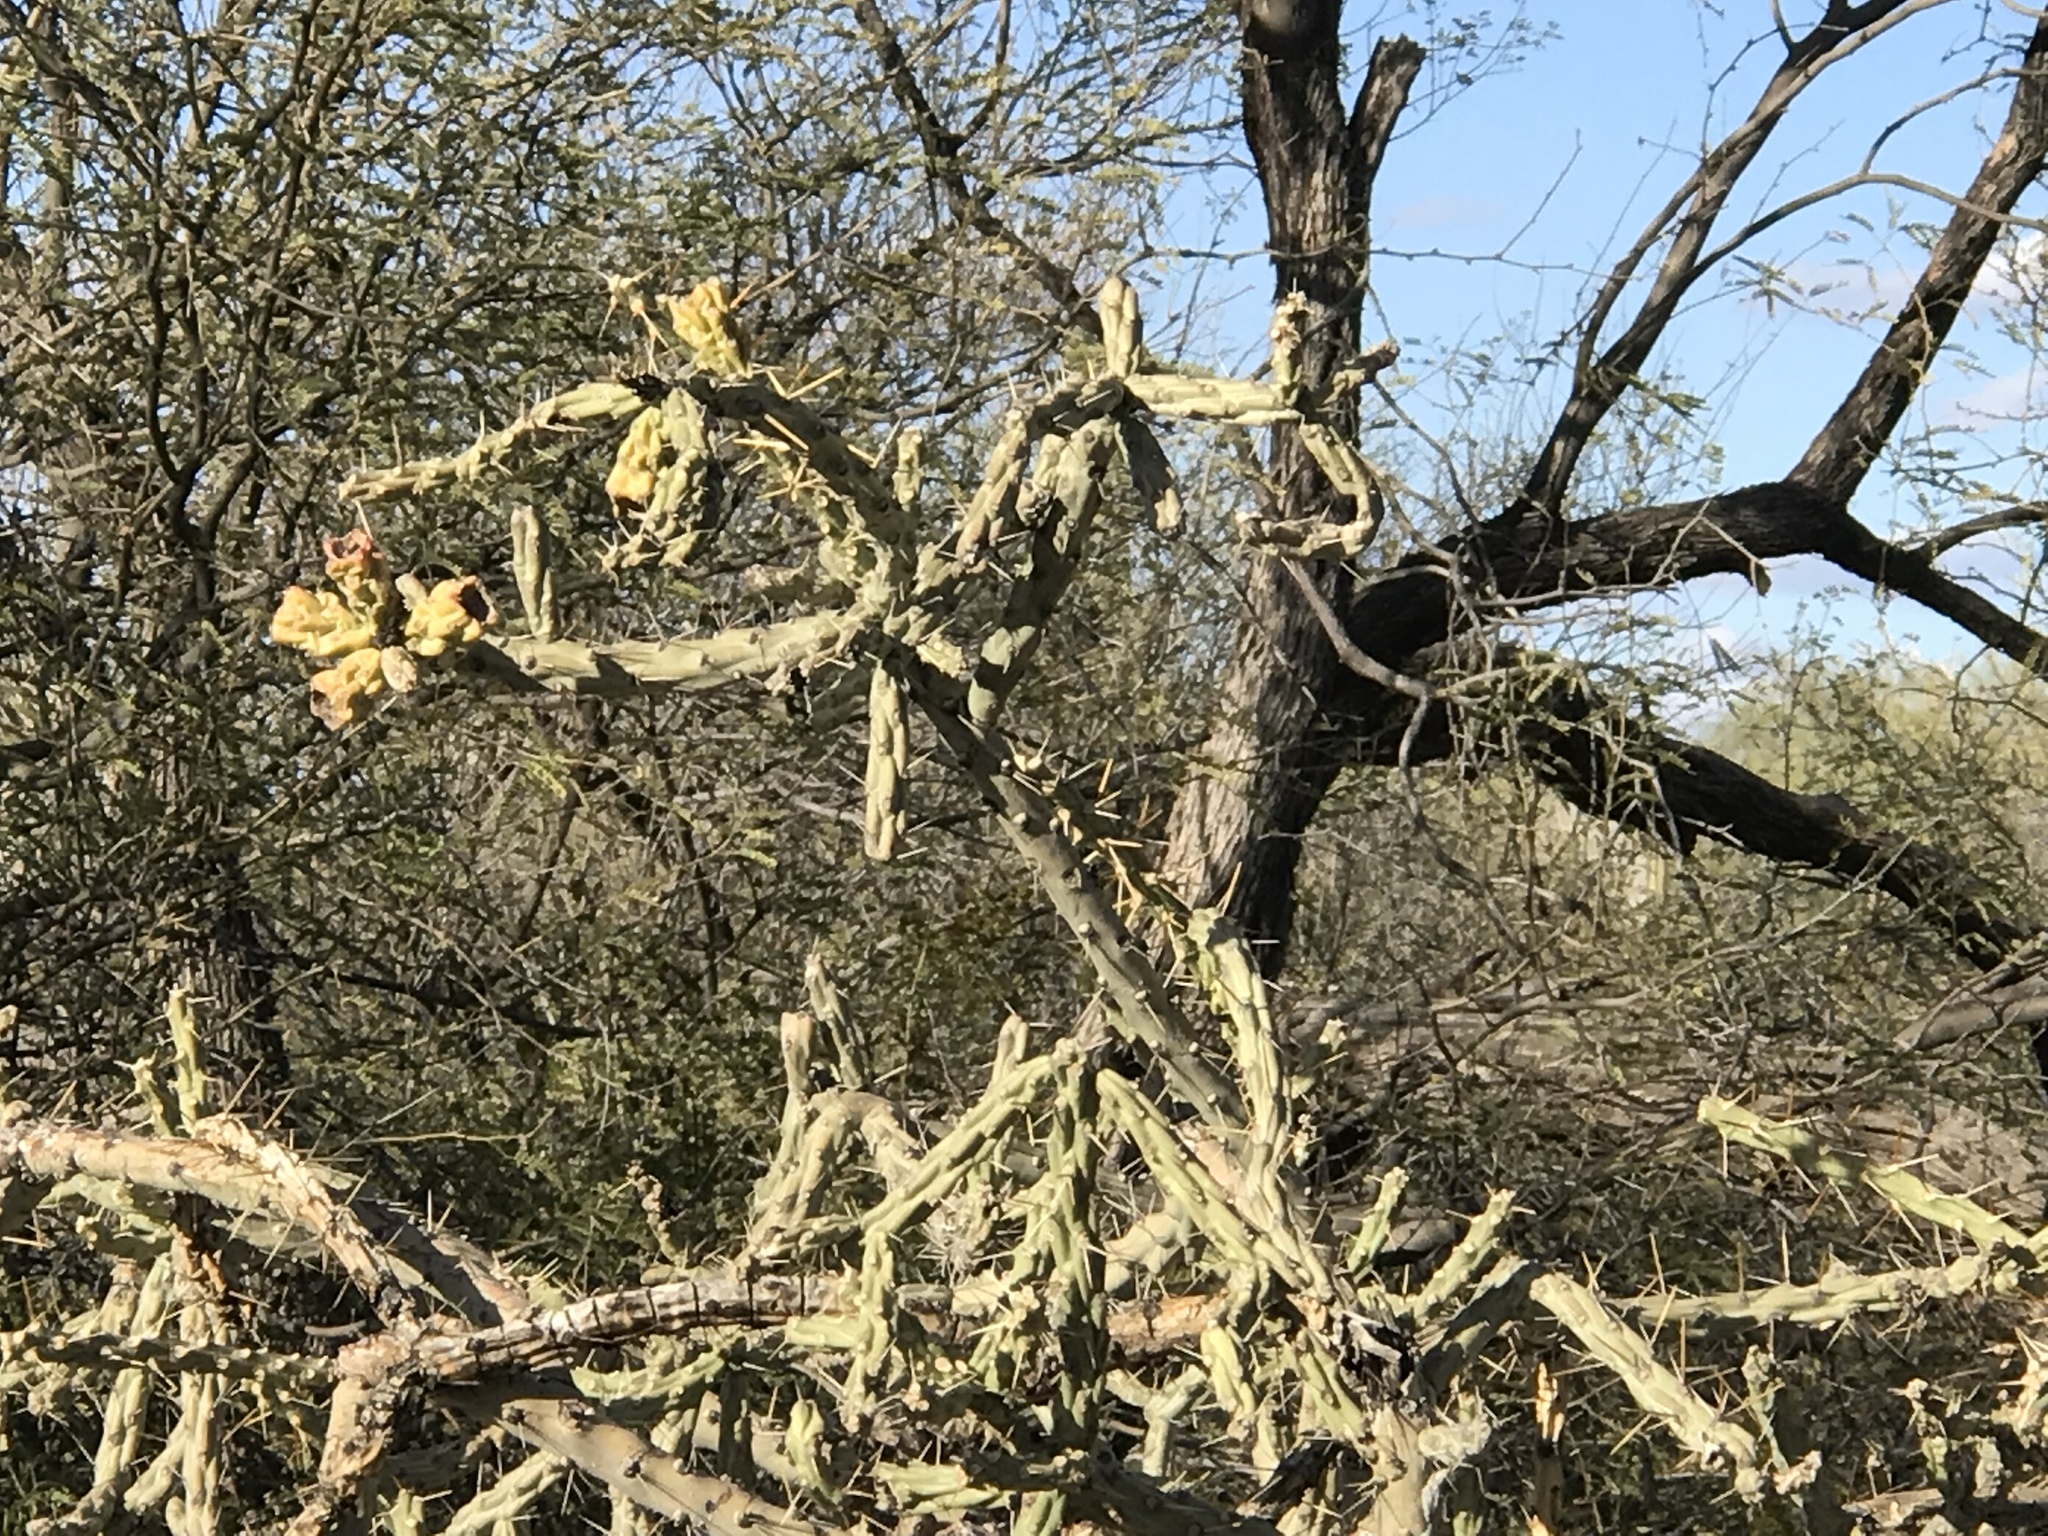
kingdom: Plantae
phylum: Tracheophyta
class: Magnoliopsida
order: Caryophyllales
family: Cactaceae
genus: Cylindropuntia
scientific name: Cylindropuntia acanthocarpa
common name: Buckhorn cholla
